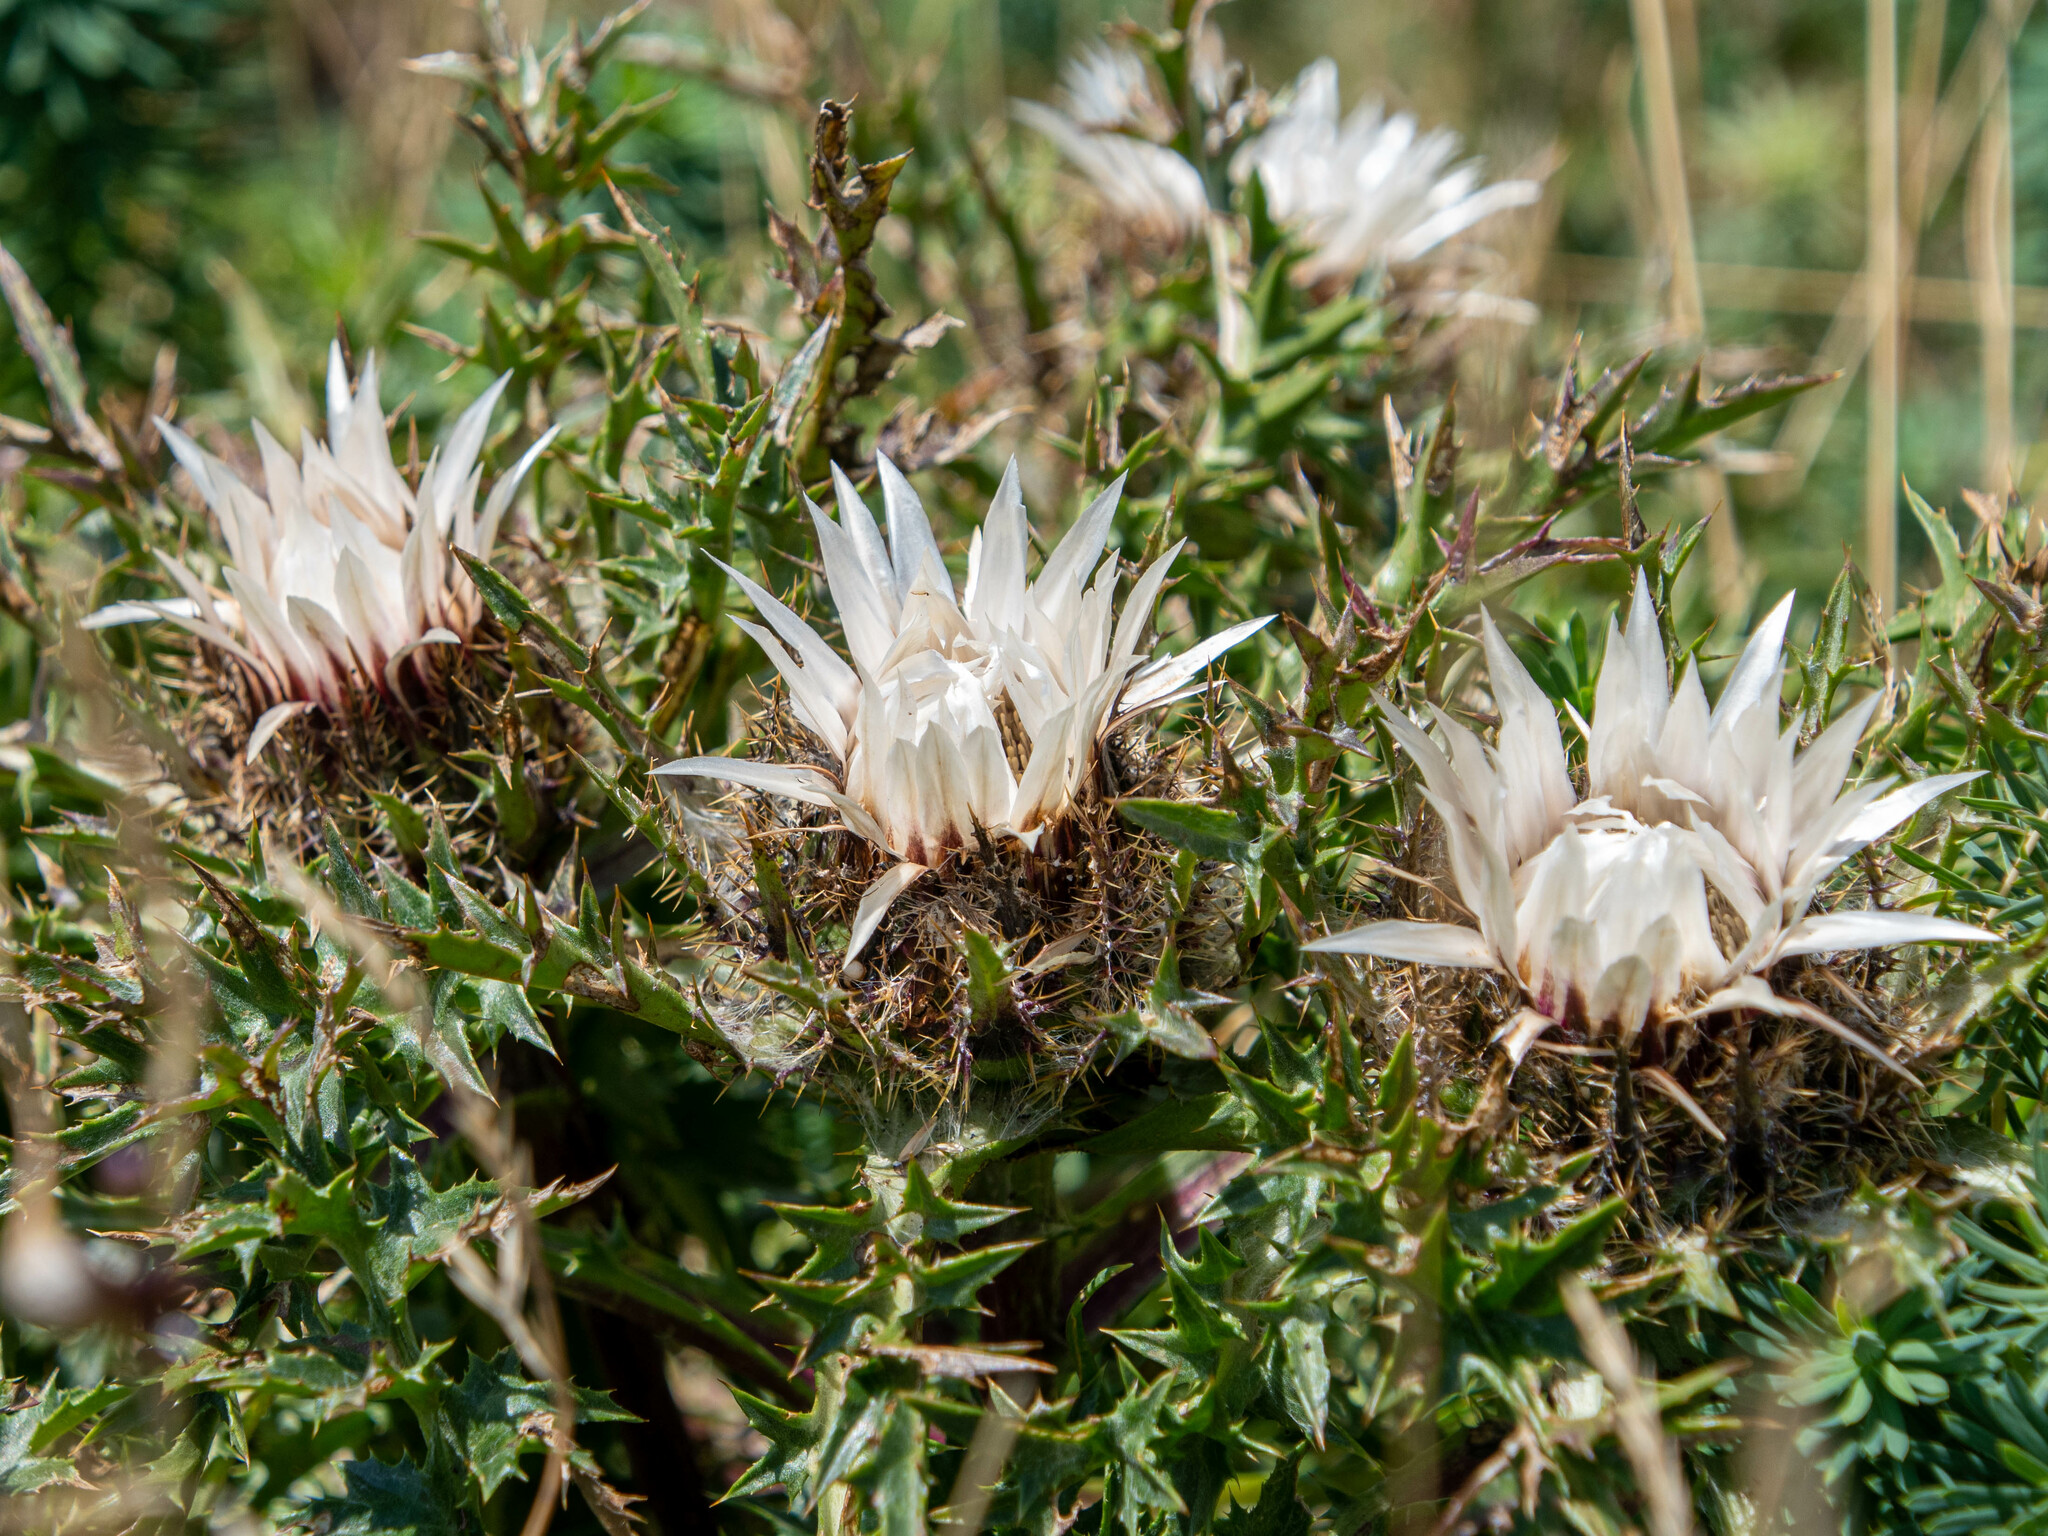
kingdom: Plantae
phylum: Tracheophyta
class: Magnoliopsida
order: Asterales
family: Asteraceae
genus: Carlina
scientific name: Carlina acaulis
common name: Stemless carline thistle
